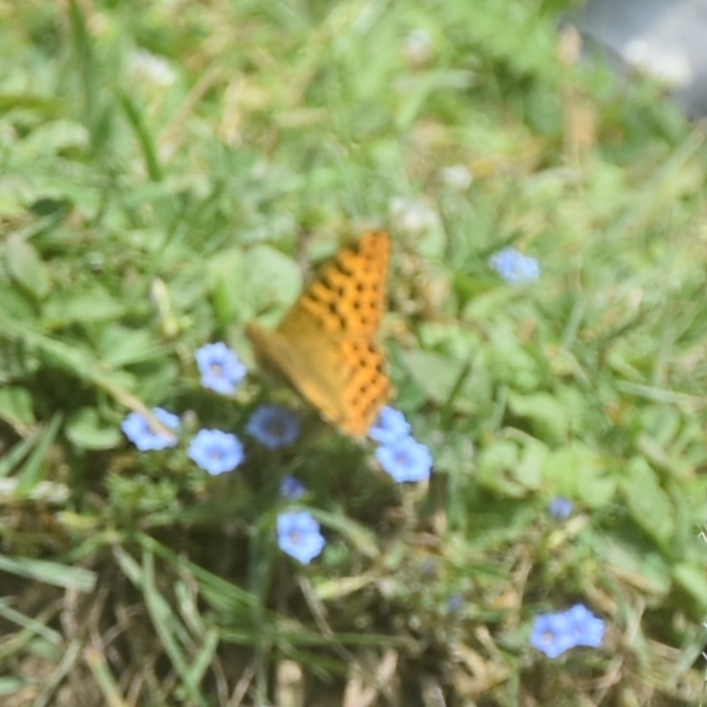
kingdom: Animalia
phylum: Arthropoda
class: Insecta
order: Lepidoptera
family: Nymphalidae
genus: Issoria
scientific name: Issoria
